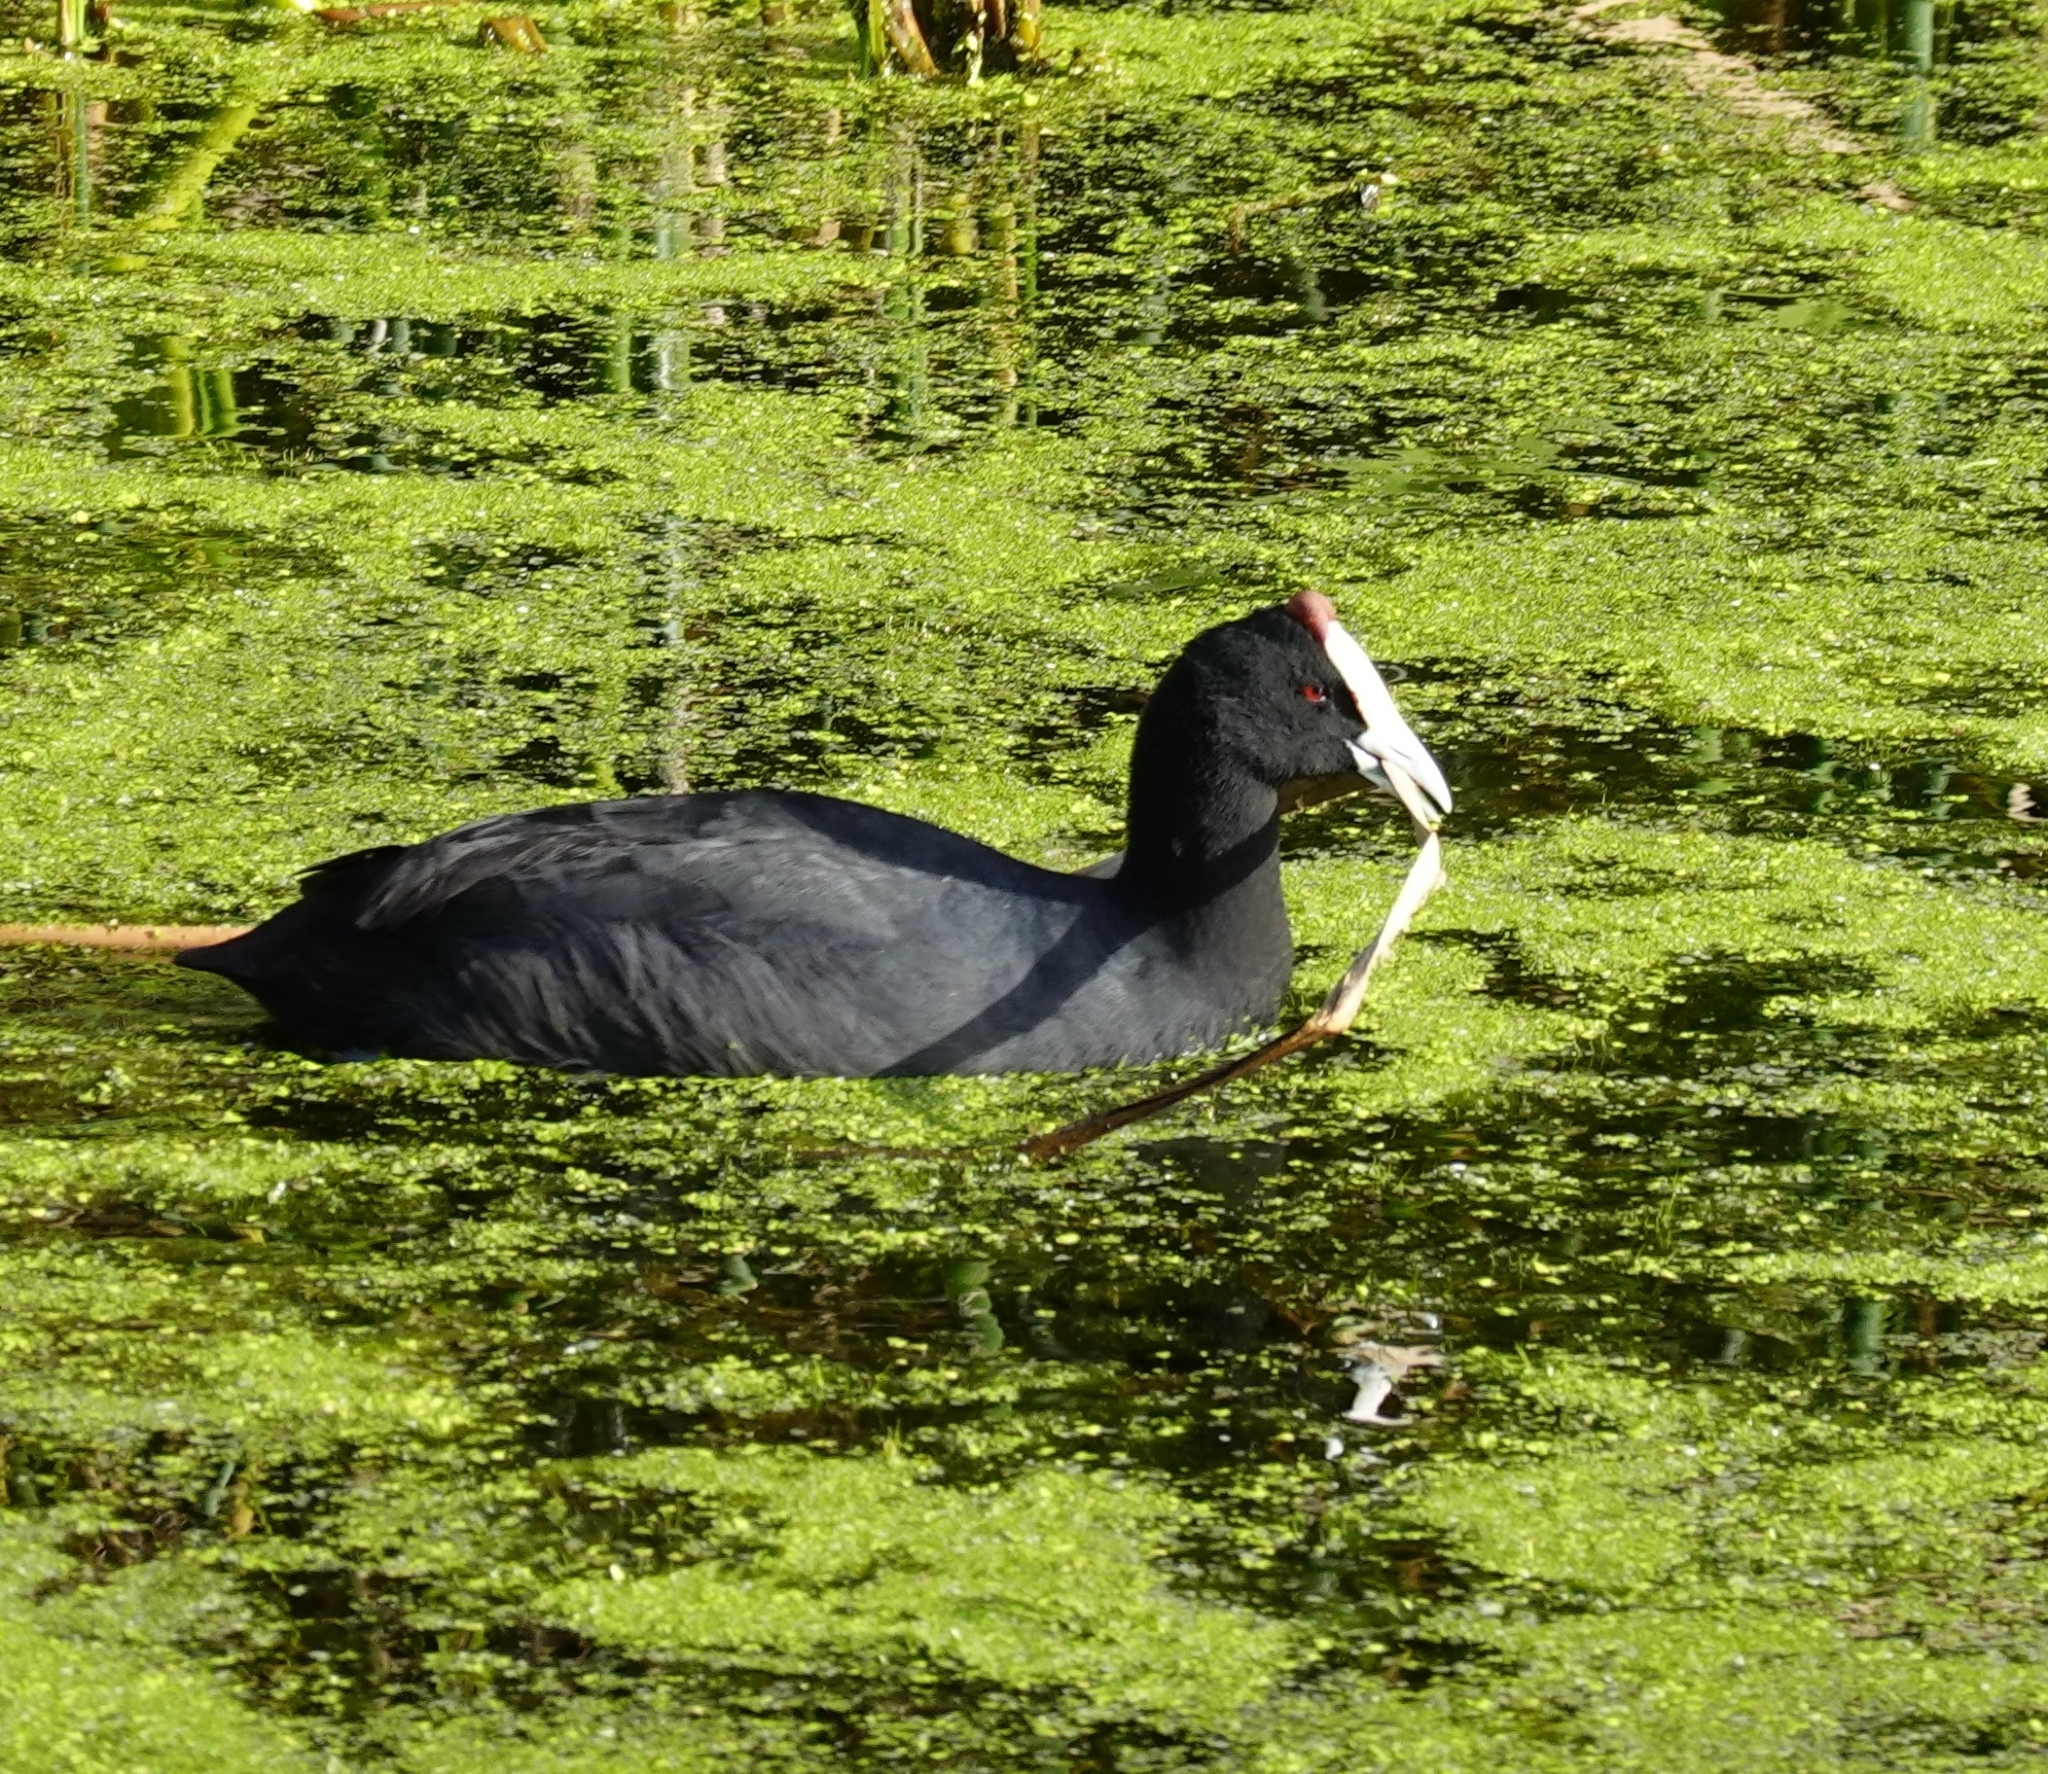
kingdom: Animalia
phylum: Chordata
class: Aves
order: Gruiformes
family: Rallidae
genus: Fulica
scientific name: Fulica cristata
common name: Red-knobbed coot
